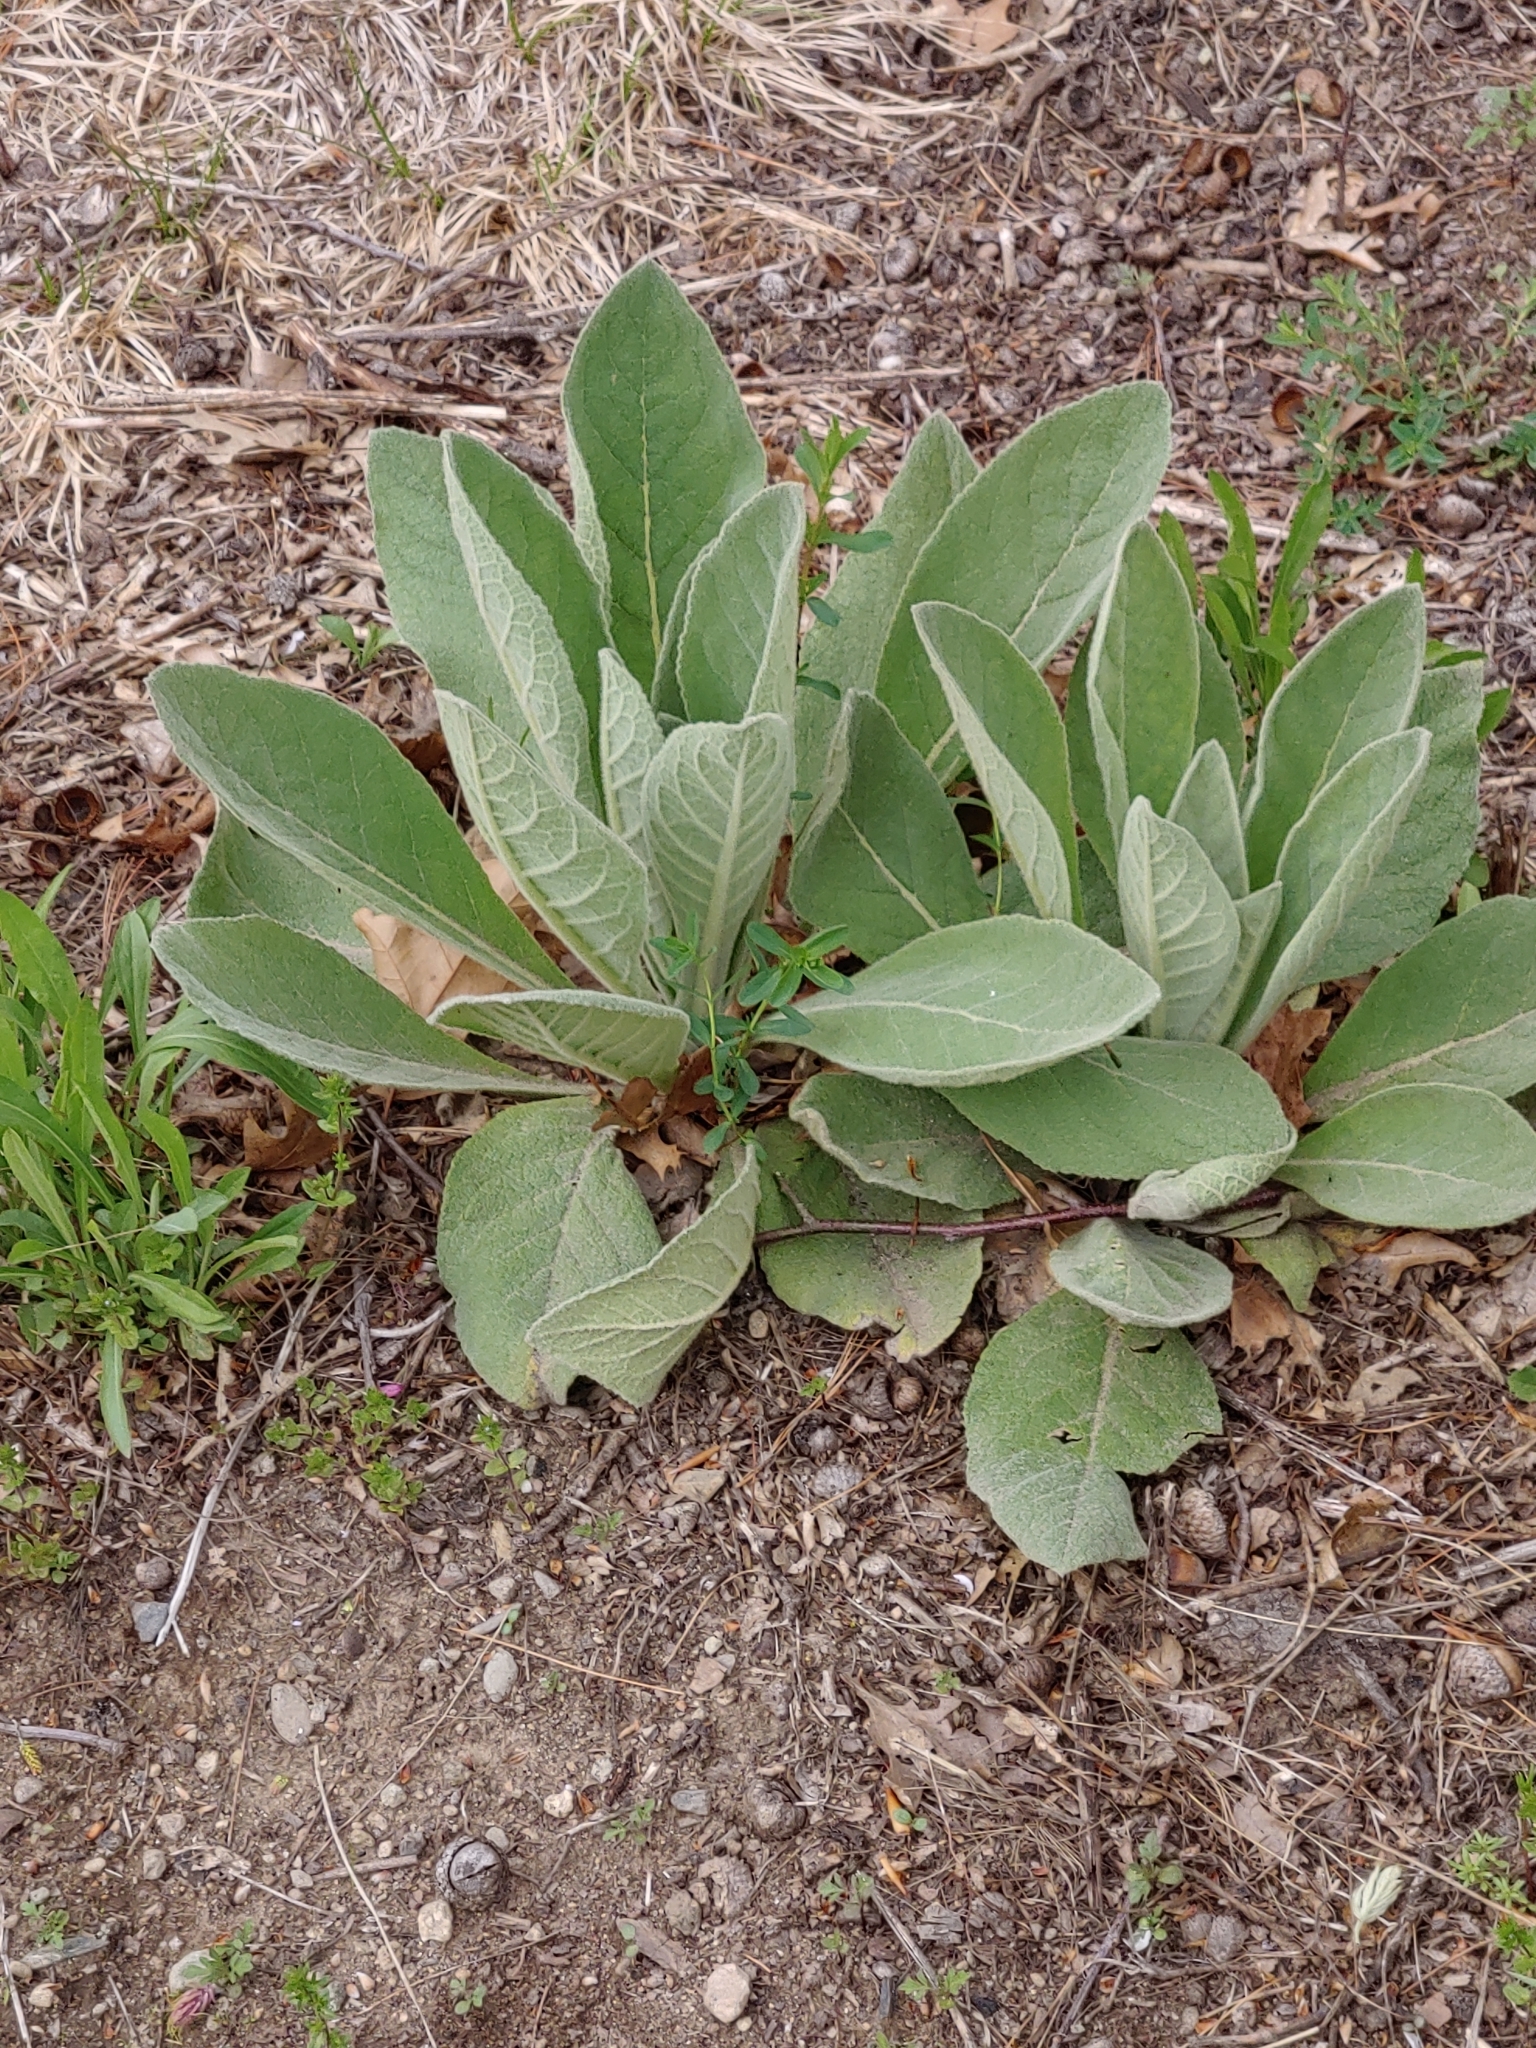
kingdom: Plantae
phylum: Tracheophyta
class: Magnoliopsida
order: Lamiales
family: Scrophulariaceae
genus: Verbascum
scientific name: Verbascum thapsus
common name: Common mullein
